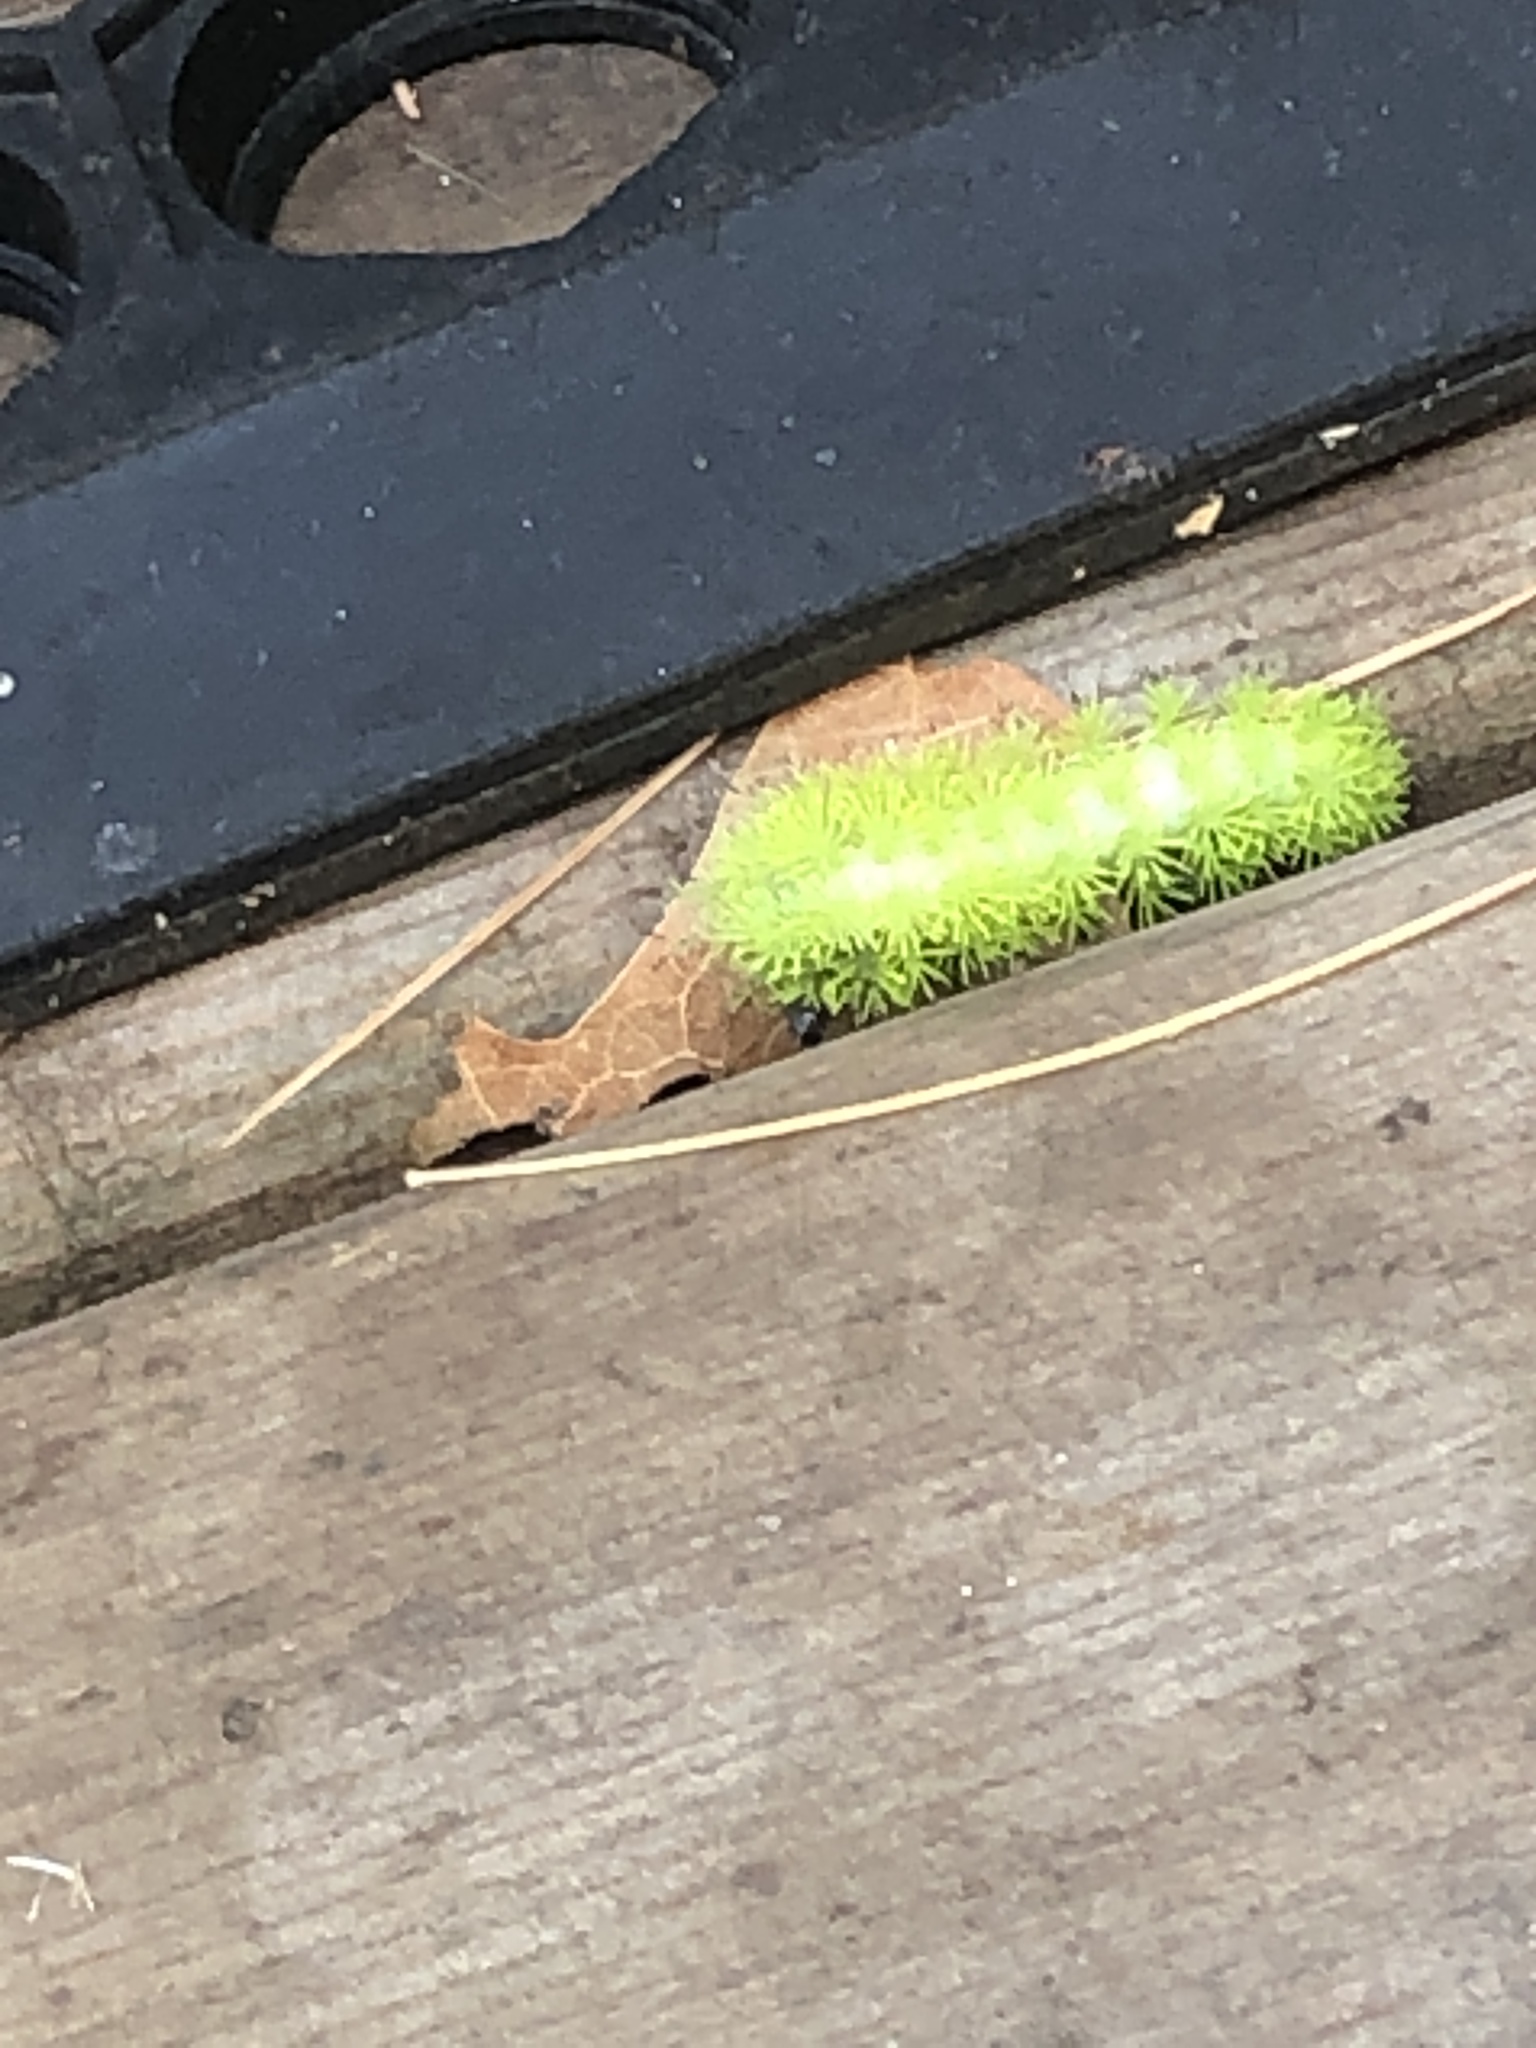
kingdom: Animalia
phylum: Arthropoda
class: Insecta
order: Lepidoptera
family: Saturniidae
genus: Automeris
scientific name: Automeris io
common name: Io moth
